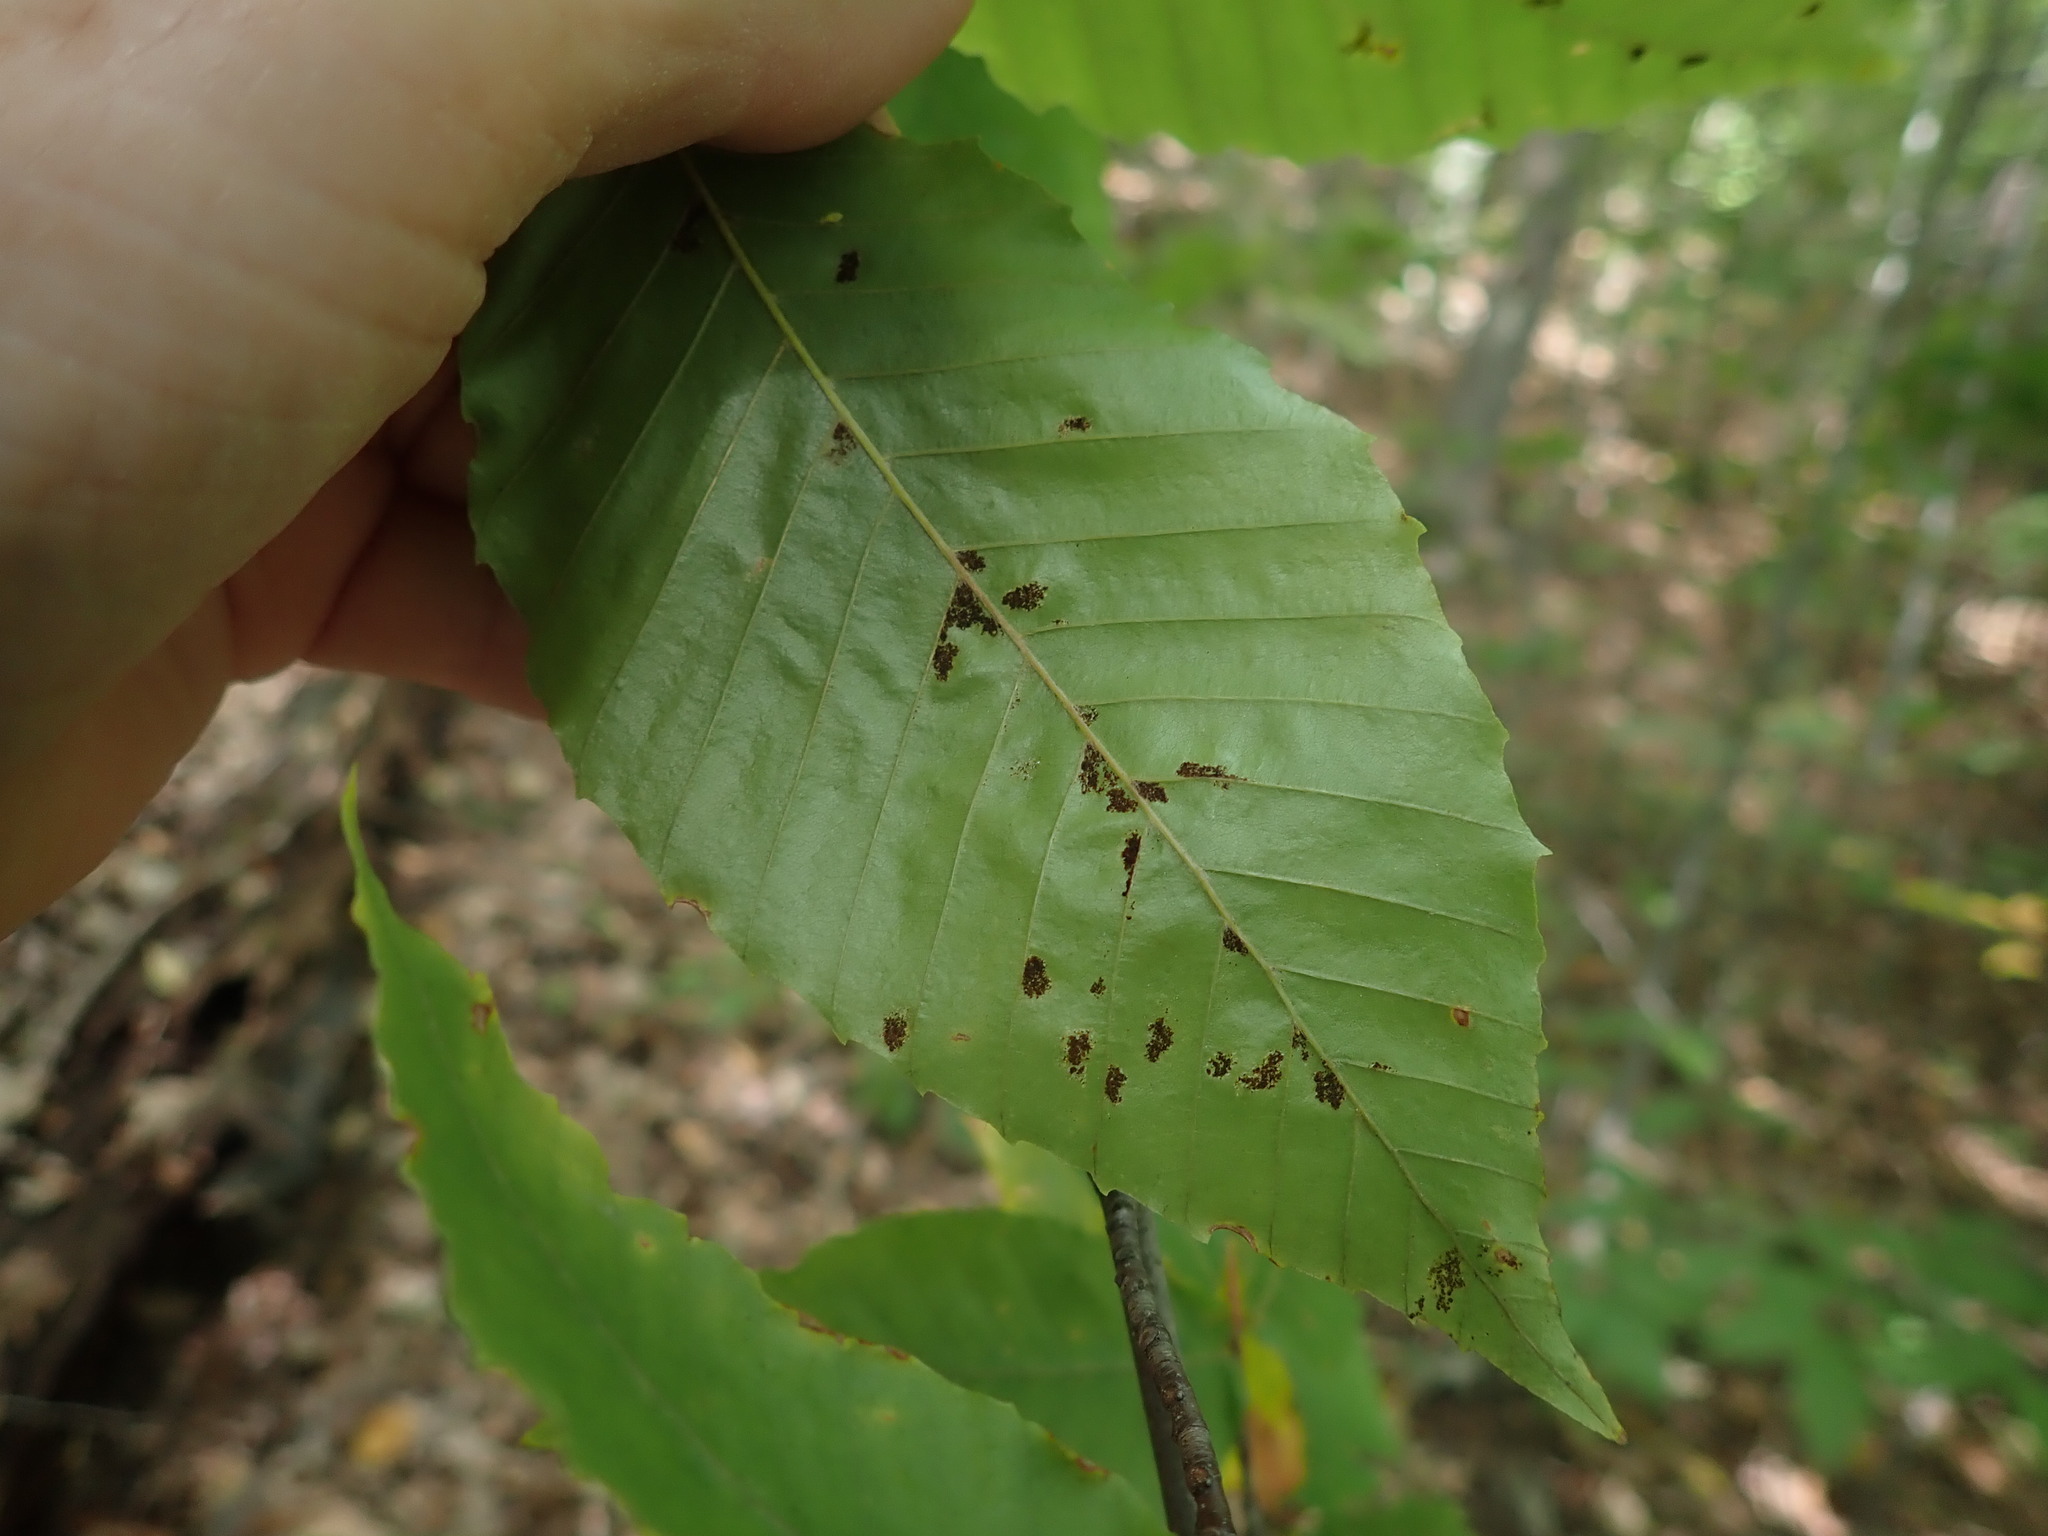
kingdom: Animalia
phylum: Arthropoda
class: Arachnida
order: Trombidiformes
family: Eriophyidae
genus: Acalitus
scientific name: Acalitus
